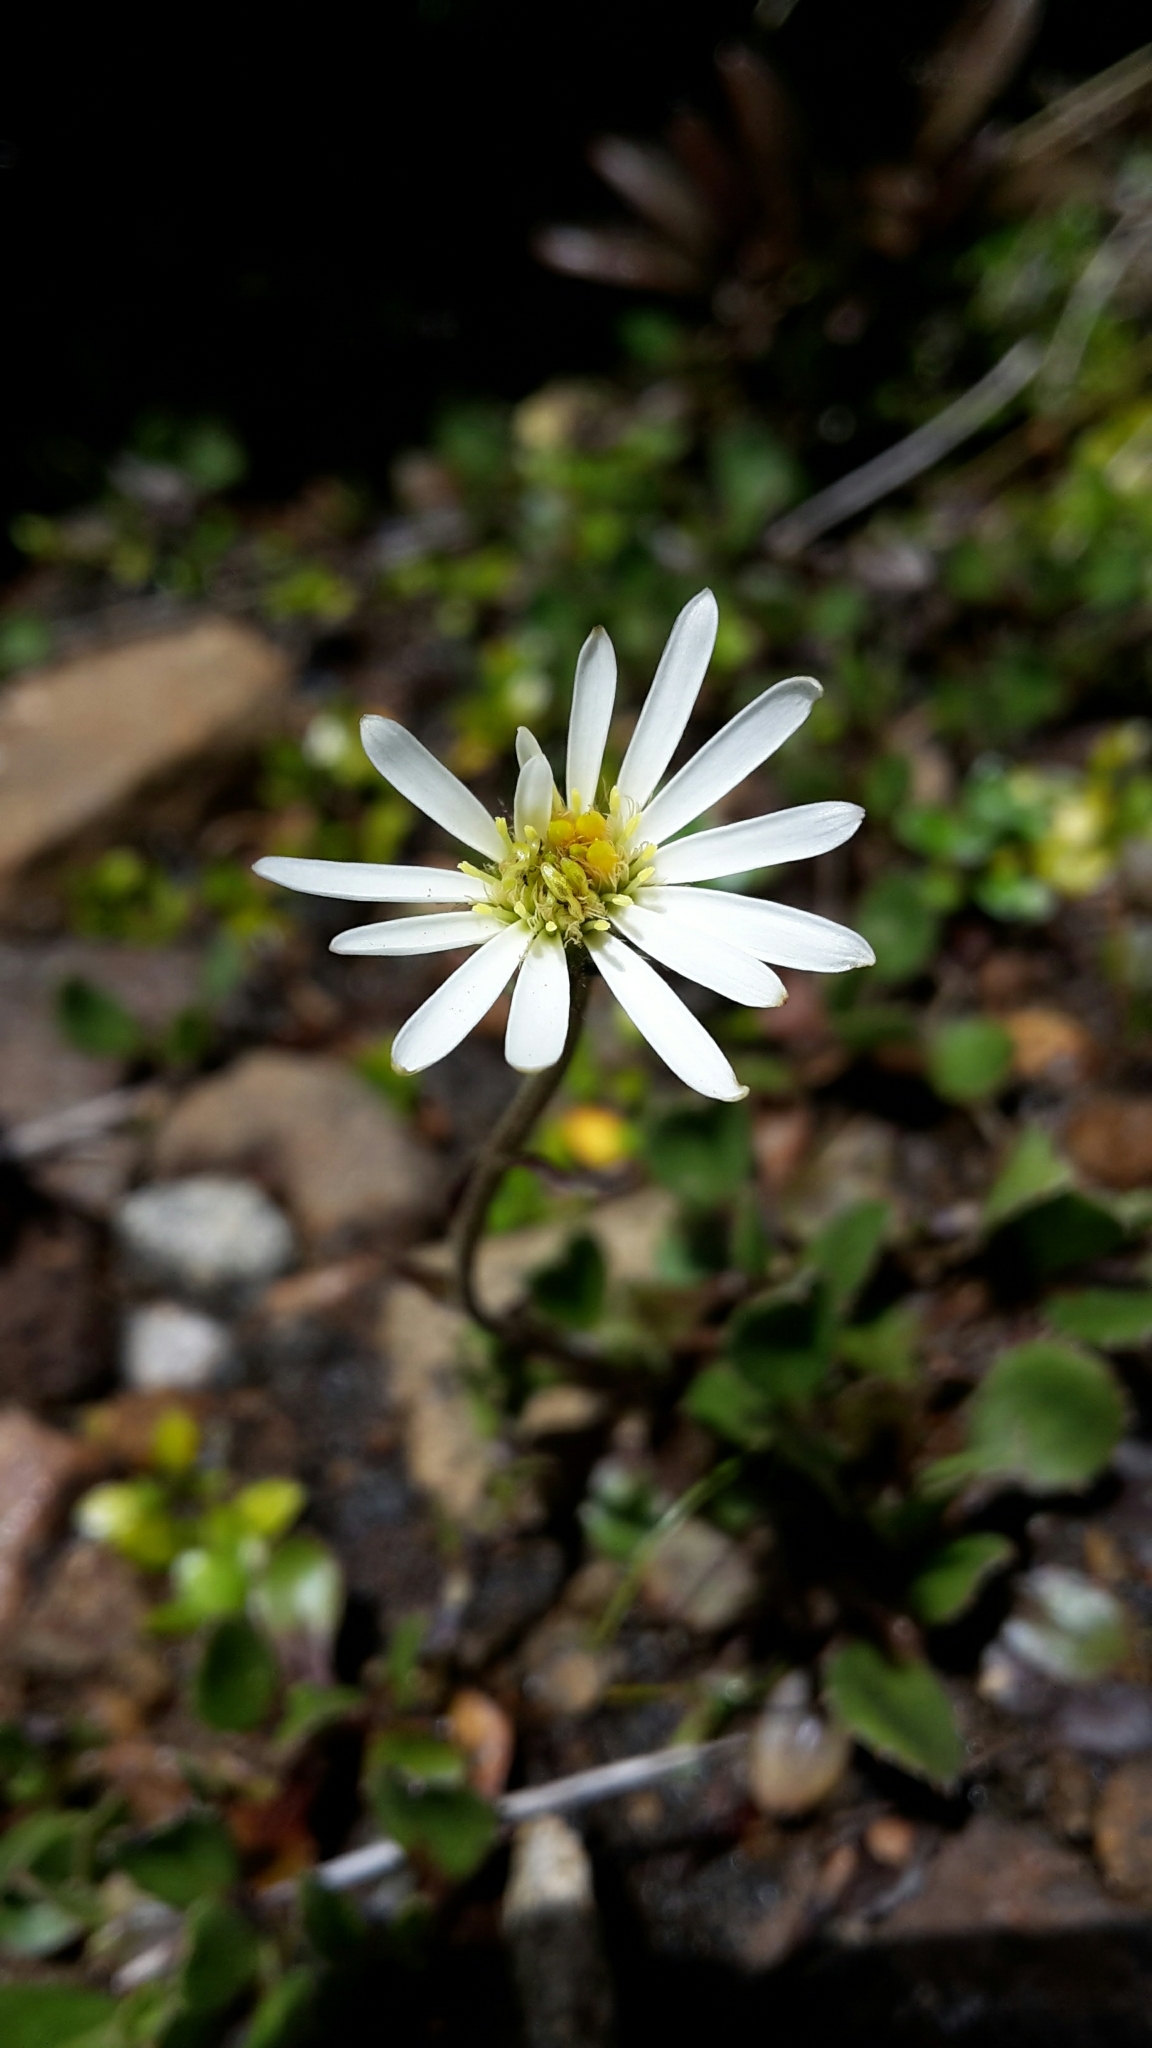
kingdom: Plantae
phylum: Tracheophyta
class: Magnoliopsida
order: Asterales
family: Asteraceae
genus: Celmisia
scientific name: Celmisia glandulosa
